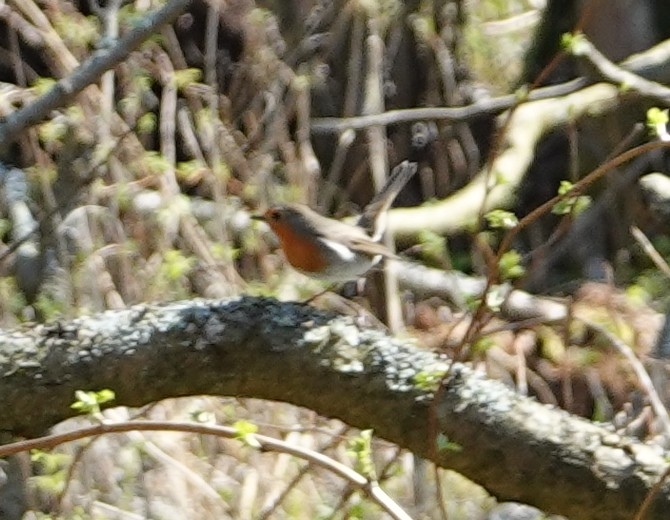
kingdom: Animalia
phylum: Chordata
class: Aves
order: Passeriformes
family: Muscicapidae
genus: Erithacus
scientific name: Erithacus rubecula
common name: European robin
